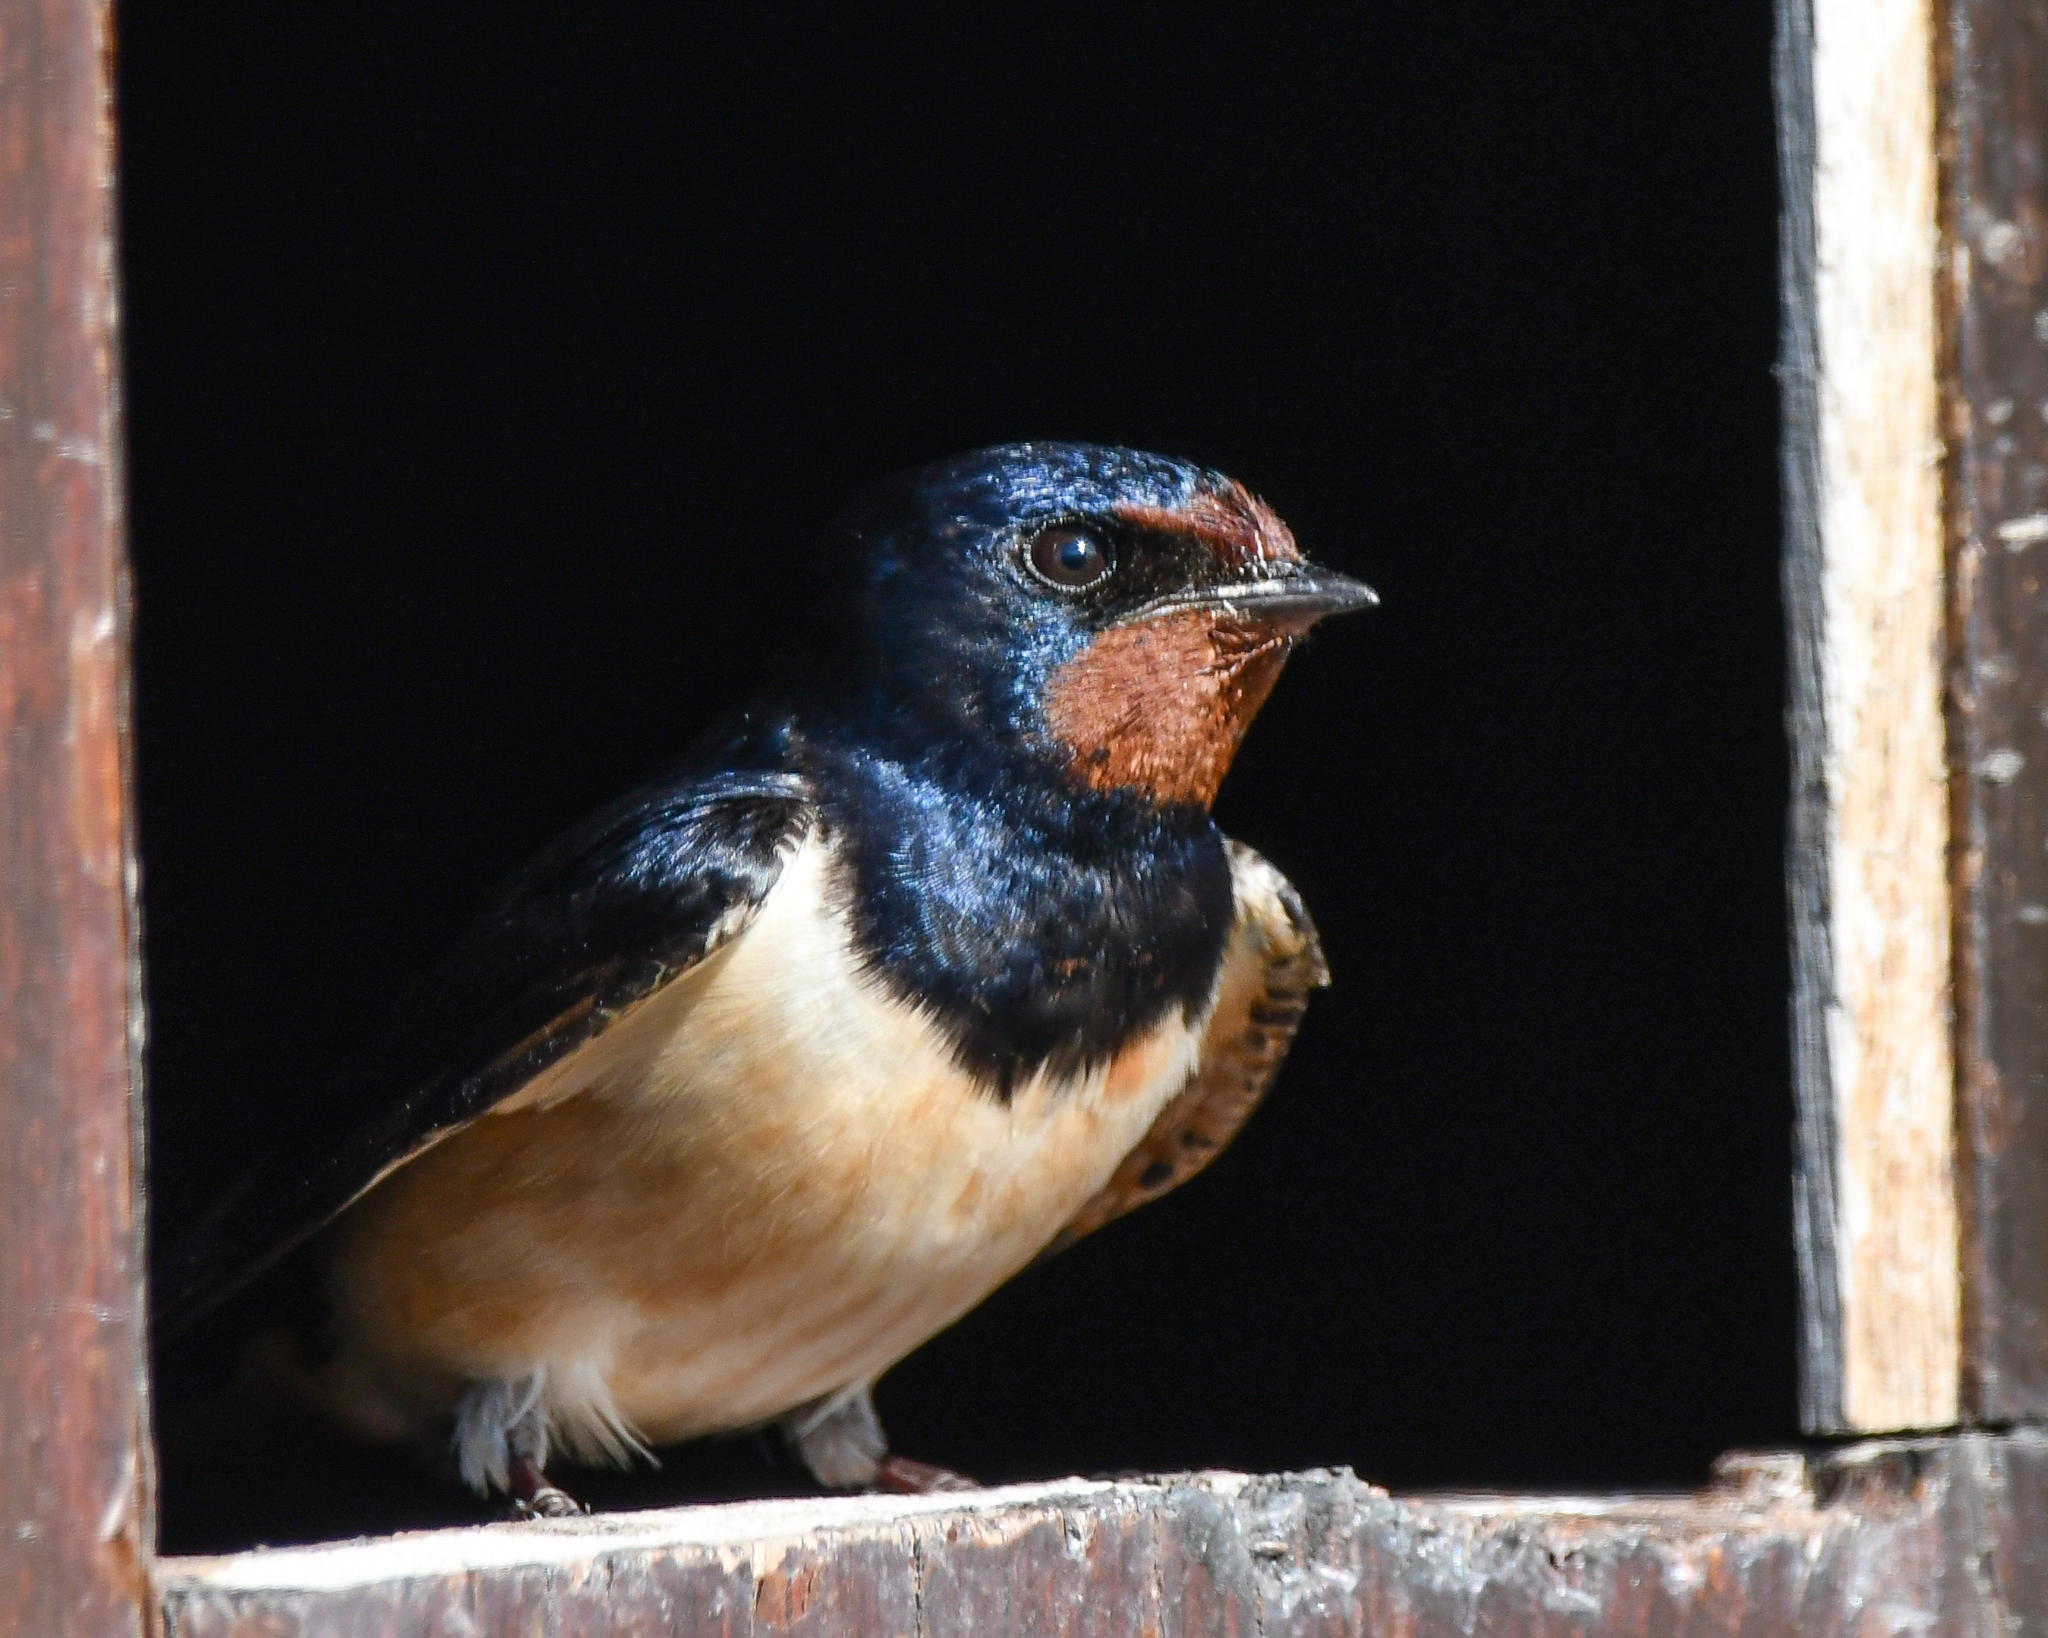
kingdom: Animalia
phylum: Chordata
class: Aves
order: Passeriformes
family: Hirundinidae
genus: Hirundo
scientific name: Hirundo rustica
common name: Barn swallow
